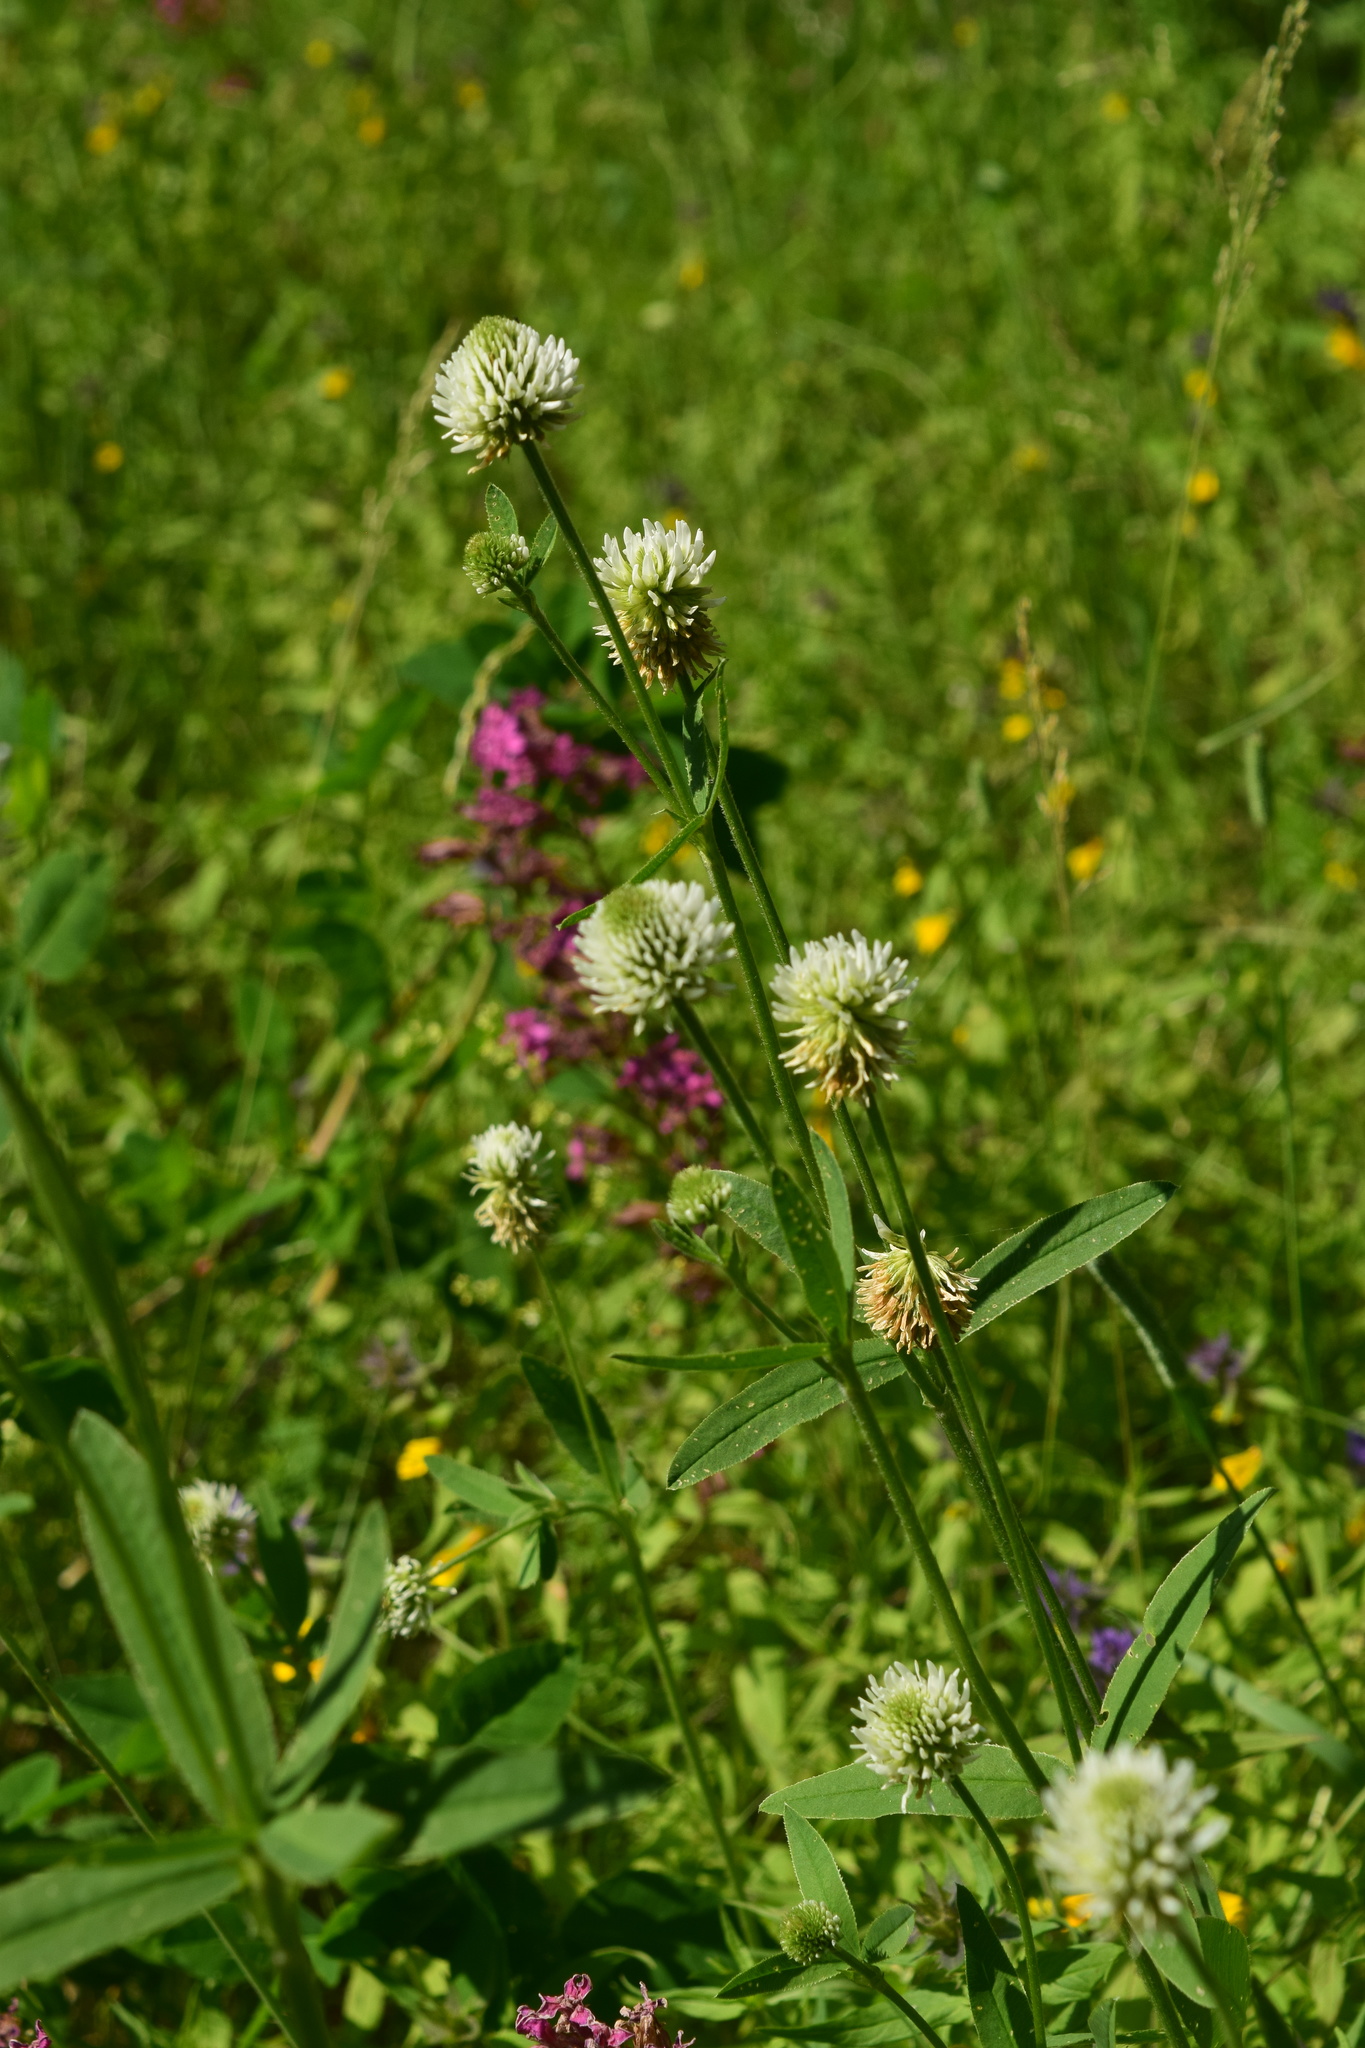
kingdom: Plantae
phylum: Tracheophyta
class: Magnoliopsida
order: Fabales
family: Fabaceae
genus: Trifolium
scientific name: Trifolium montanum
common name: Mountain clover
